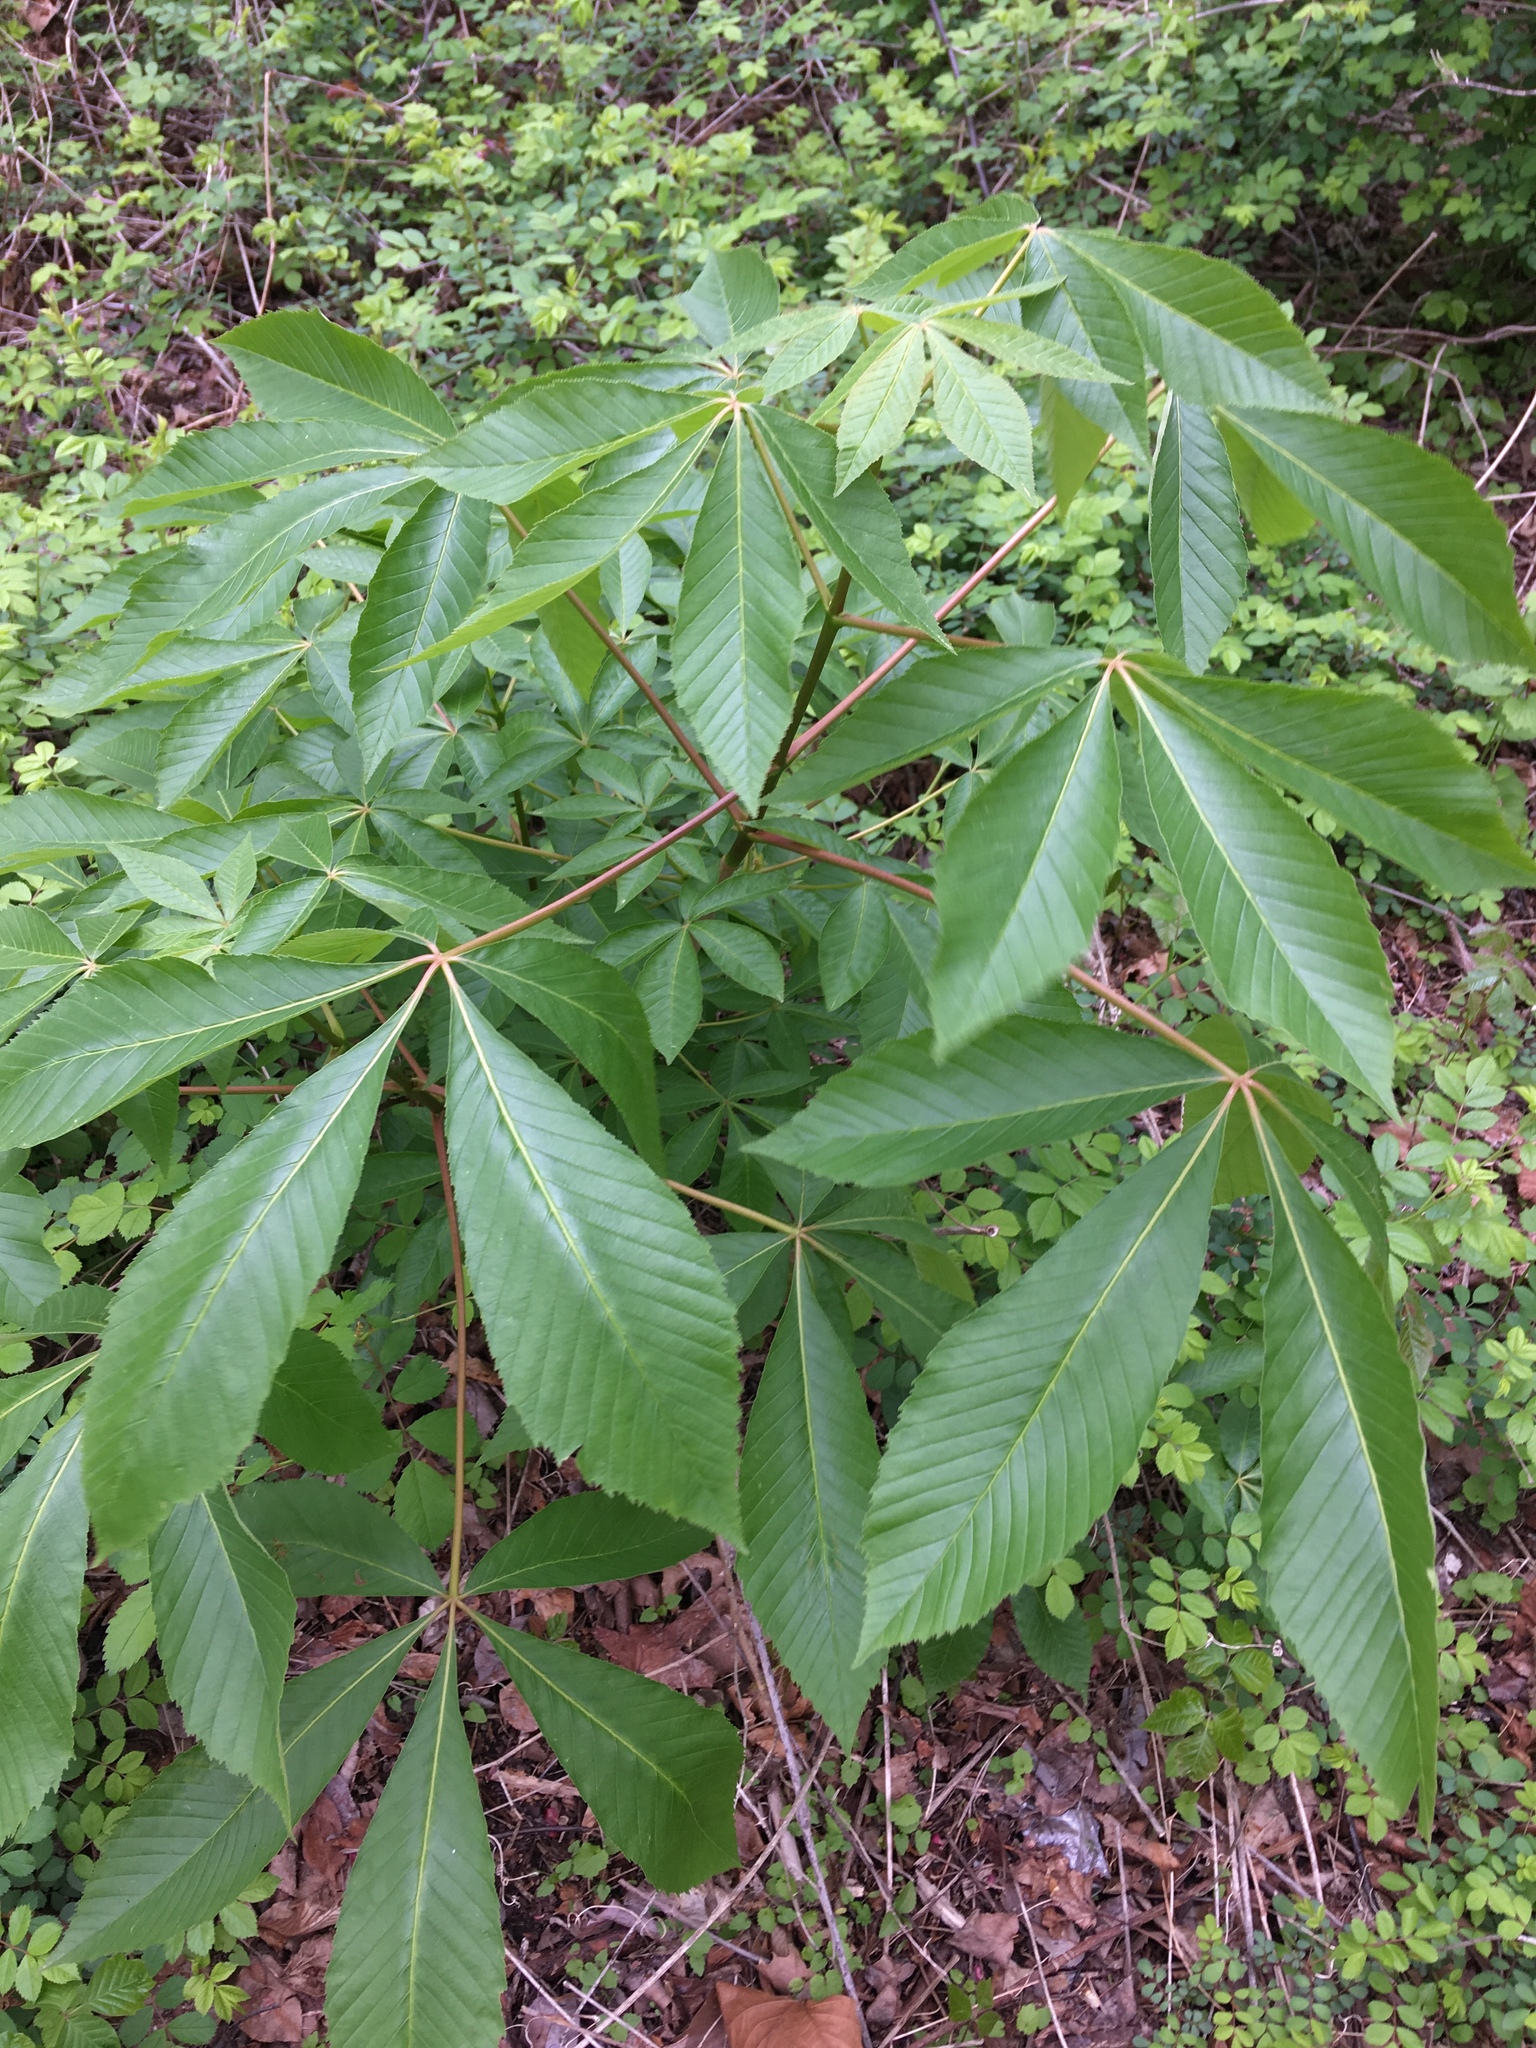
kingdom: Plantae
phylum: Tracheophyta
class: Magnoliopsida
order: Sapindales
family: Sapindaceae
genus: Aesculus
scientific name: Aesculus glabra
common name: Ohio buckeye
